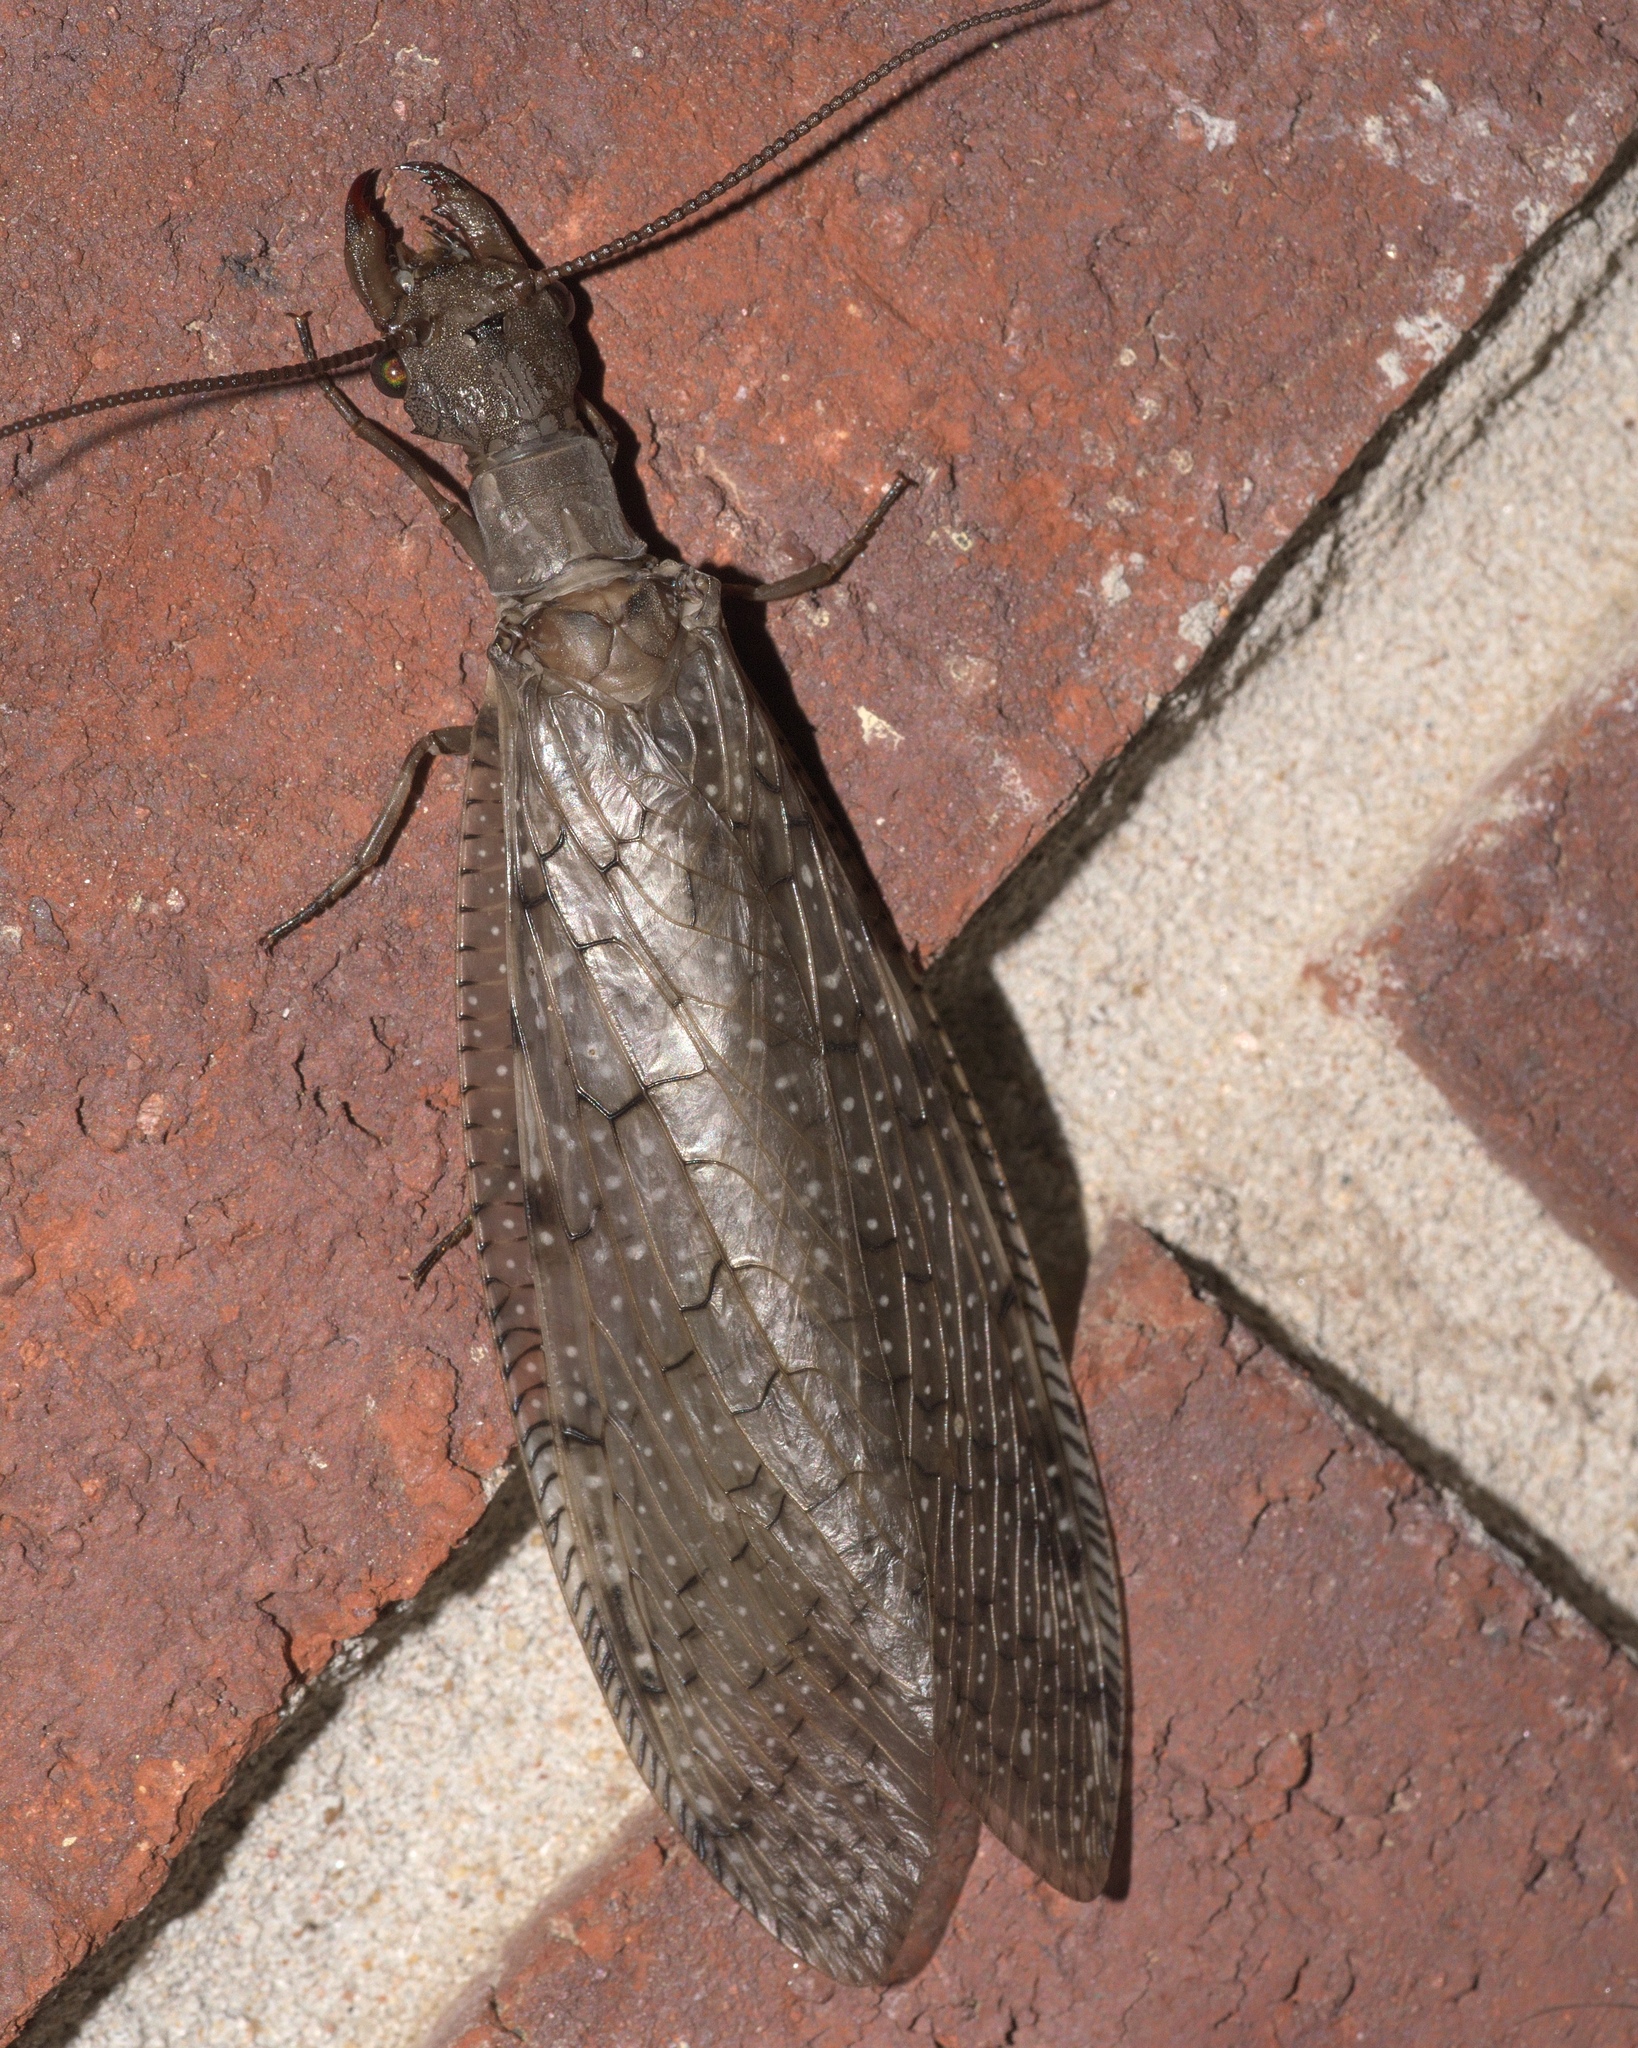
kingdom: Animalia
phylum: Arthropoda
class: Insecta
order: Megaloptera
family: Corydalidae
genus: Corydalus
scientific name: Corydalus cornutus
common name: Dobsonfly
